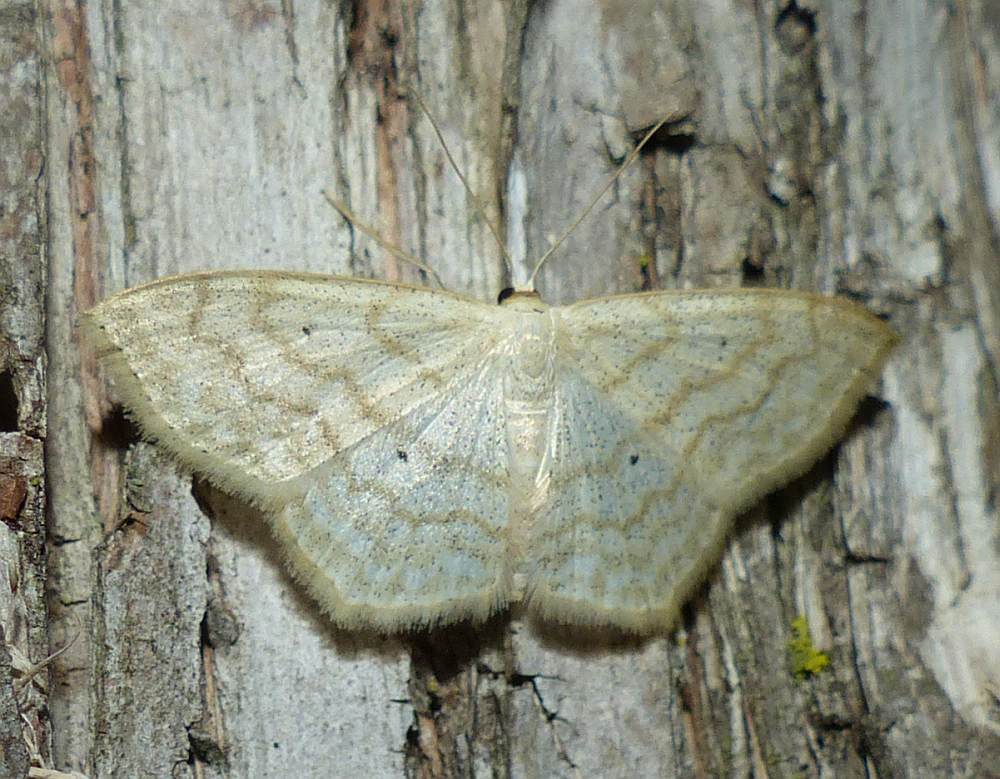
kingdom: Animalia
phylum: Arthropoda
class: Insecta
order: Lepidoptera
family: Geometridae
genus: Scopula
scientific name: Scopula limboundata
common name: Large lace border
